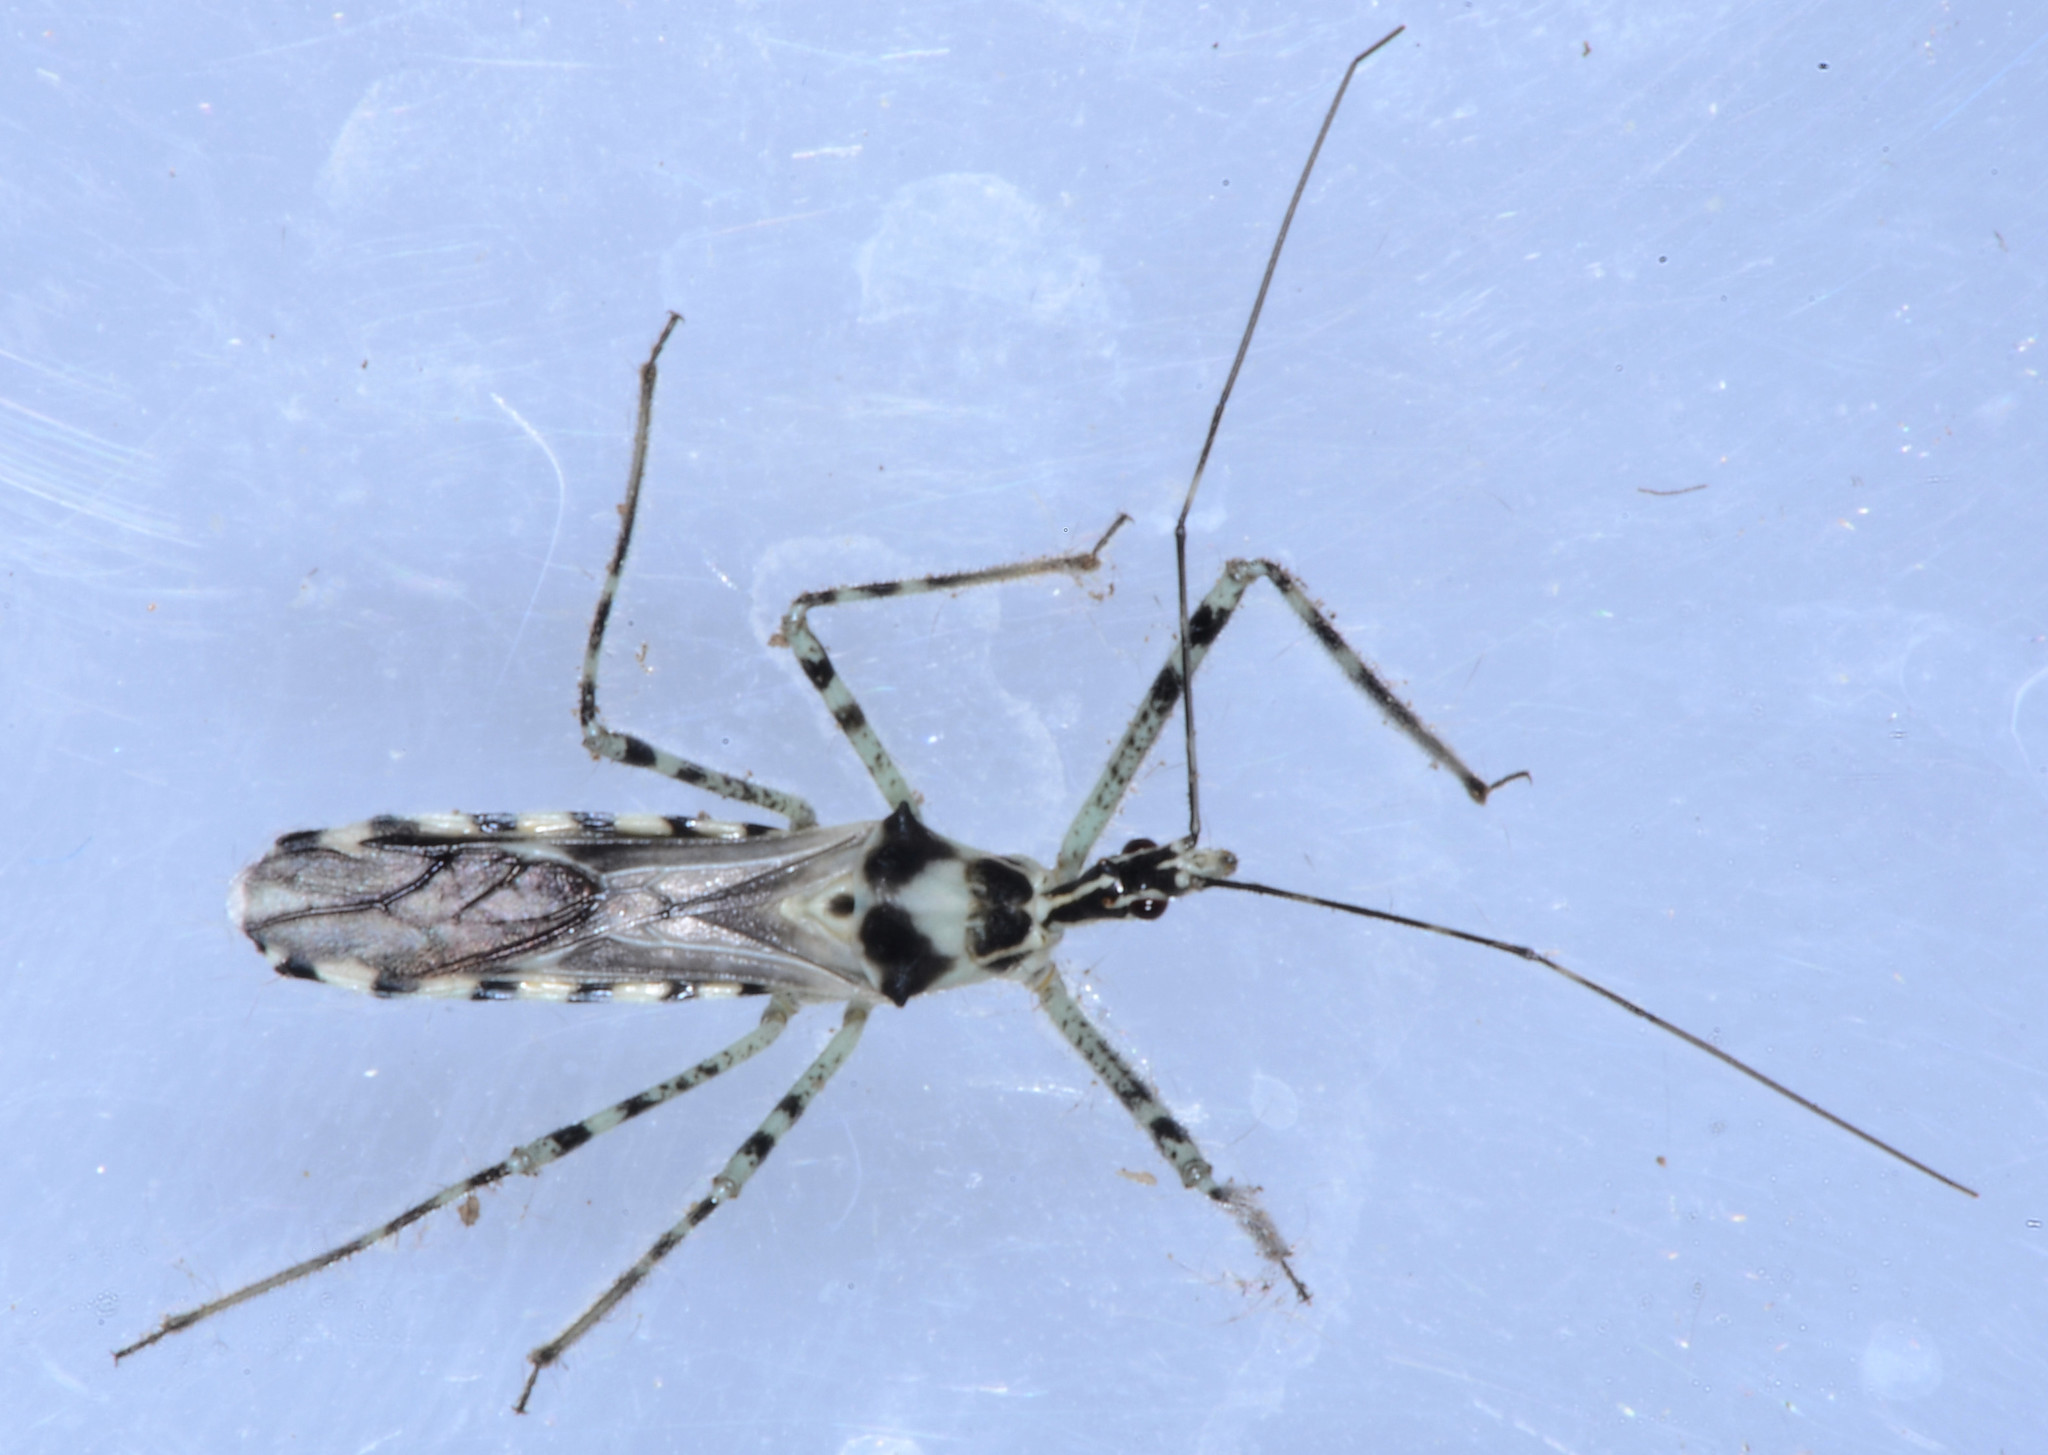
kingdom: Animalia
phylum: Arthropoda
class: Insecta
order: Hemiptera
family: Reduviidae
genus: Zelus
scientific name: Zelus tetracanthus
